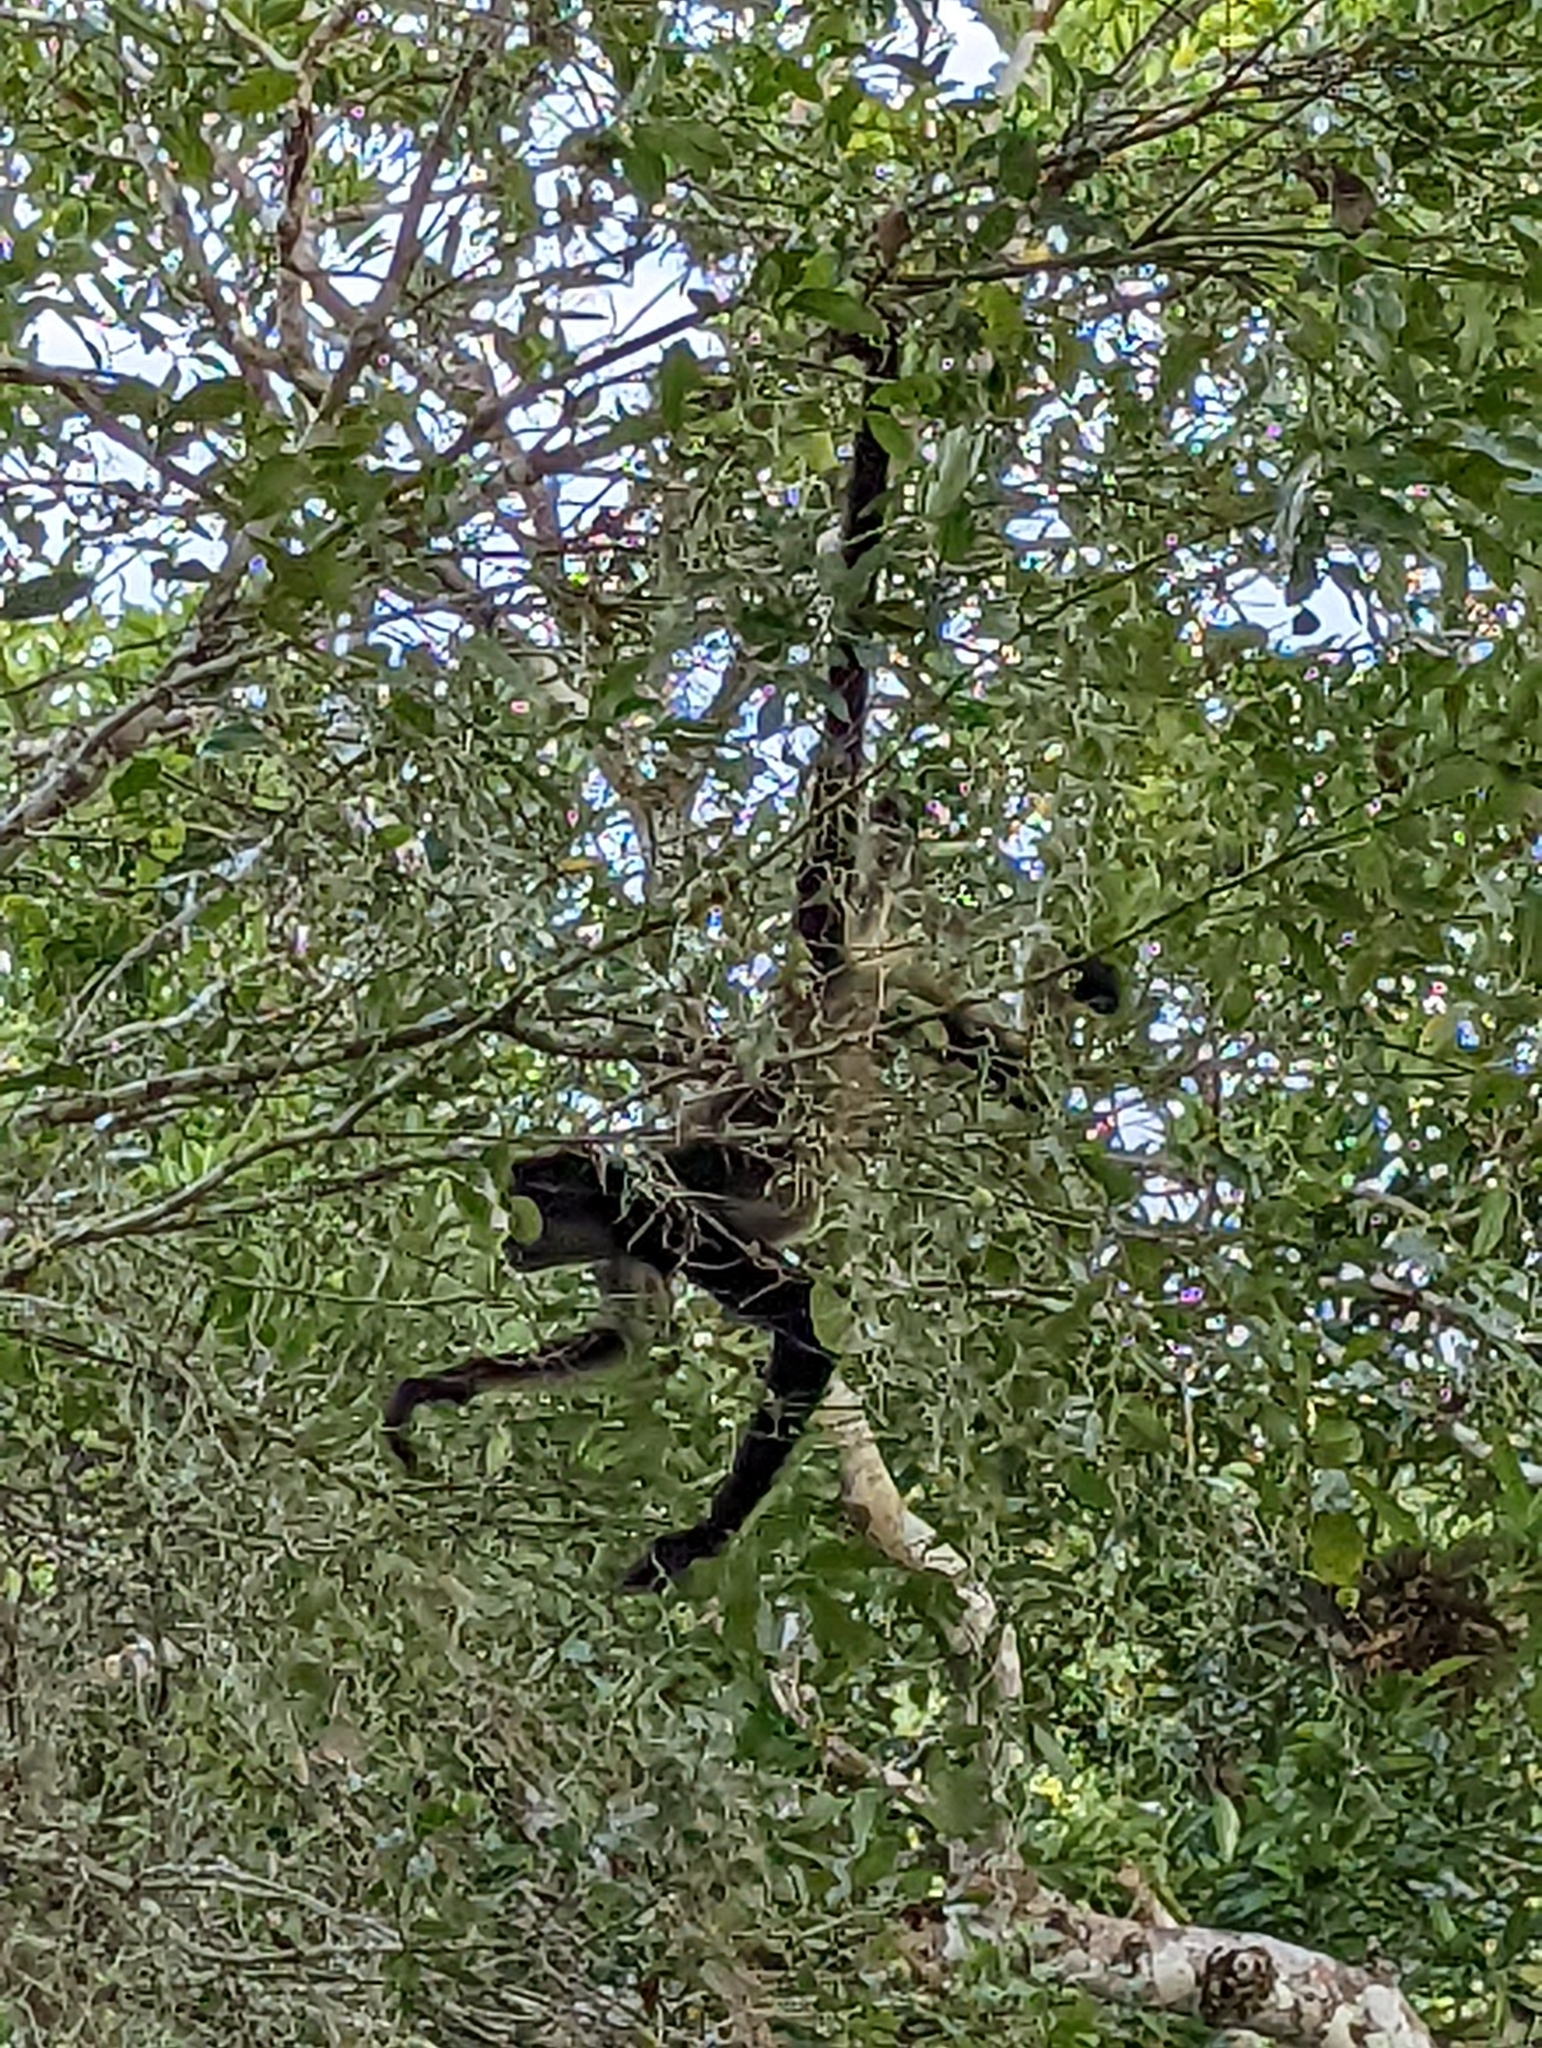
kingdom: Animalia
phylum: Chordata
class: Mammalia
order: Primates
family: Atelidae
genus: Ateles
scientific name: Ateles geoffroyi
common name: Black-handed spider monkey
